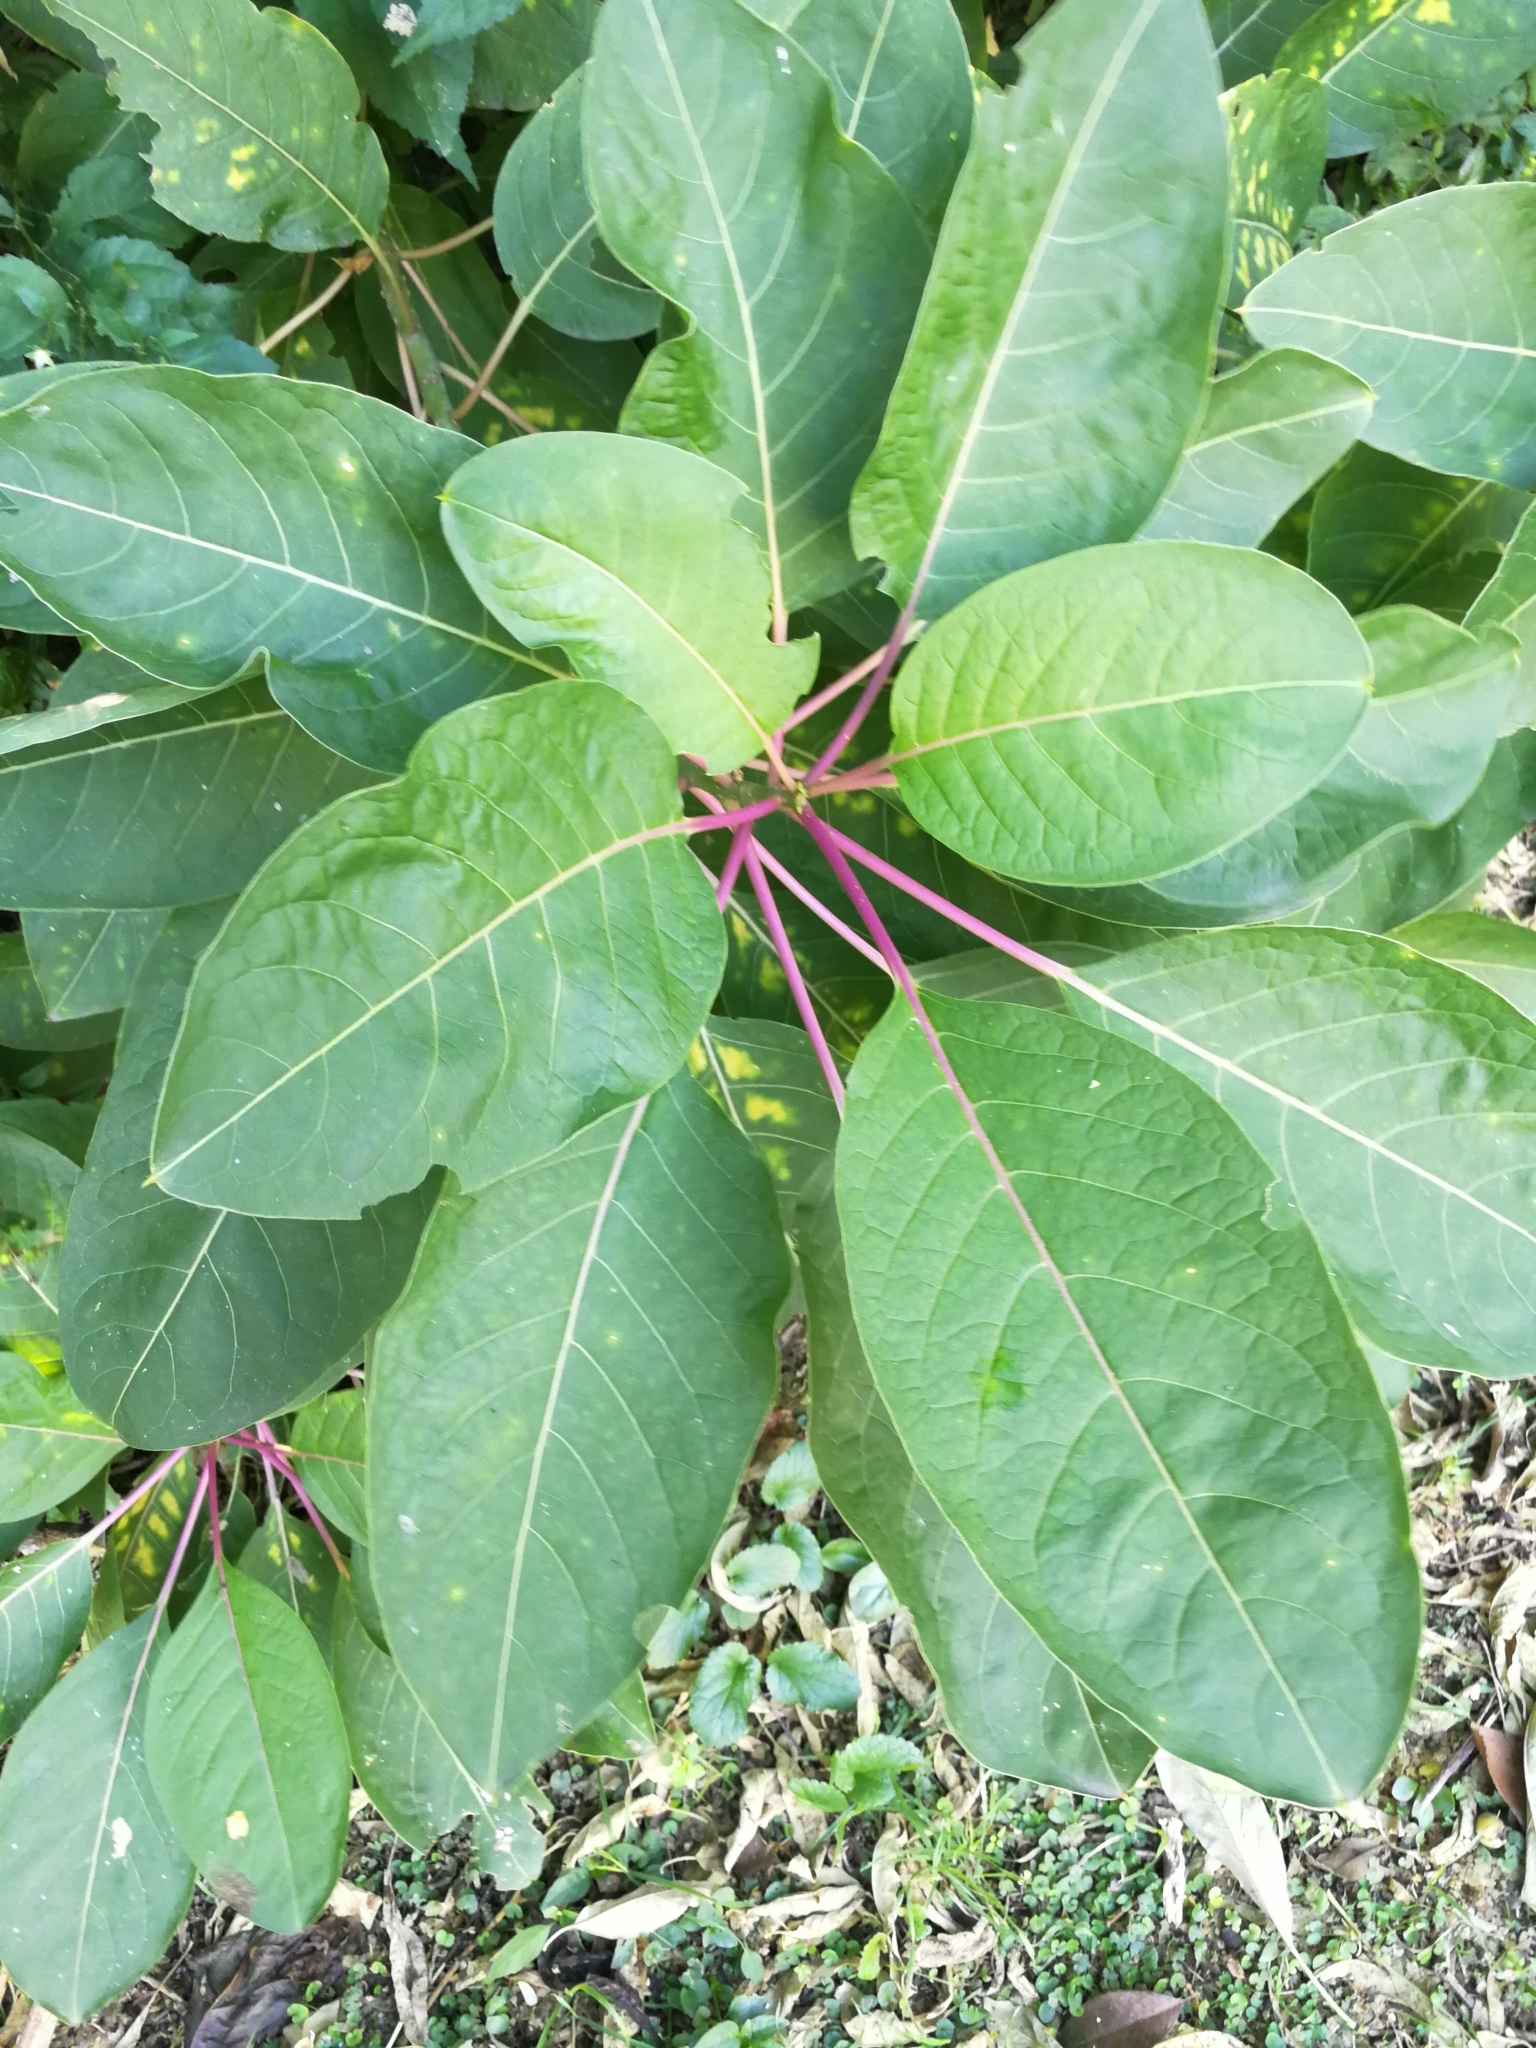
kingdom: Plantae
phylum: Tracheophyta
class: Magnoliopsida
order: Caryophyllales
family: Phytolaccaceae
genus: Phytolacca
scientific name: Phytolacca dioica
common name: Pokeweed
